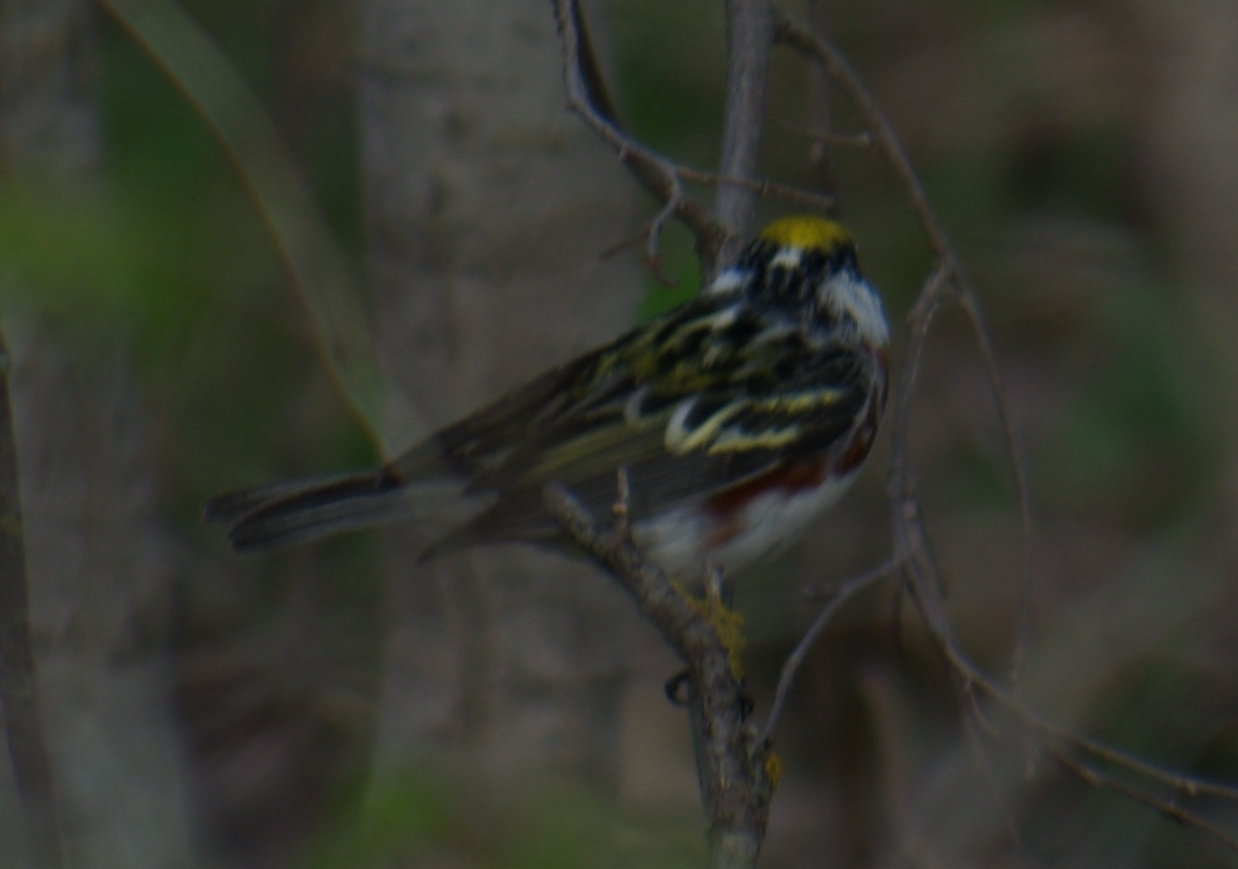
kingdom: Animalia
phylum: Chordata
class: Aves
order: Passeriformes
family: Parulidae
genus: Setophaga
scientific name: Setophaga pensylvanica
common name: Chestnut-sided warbler
